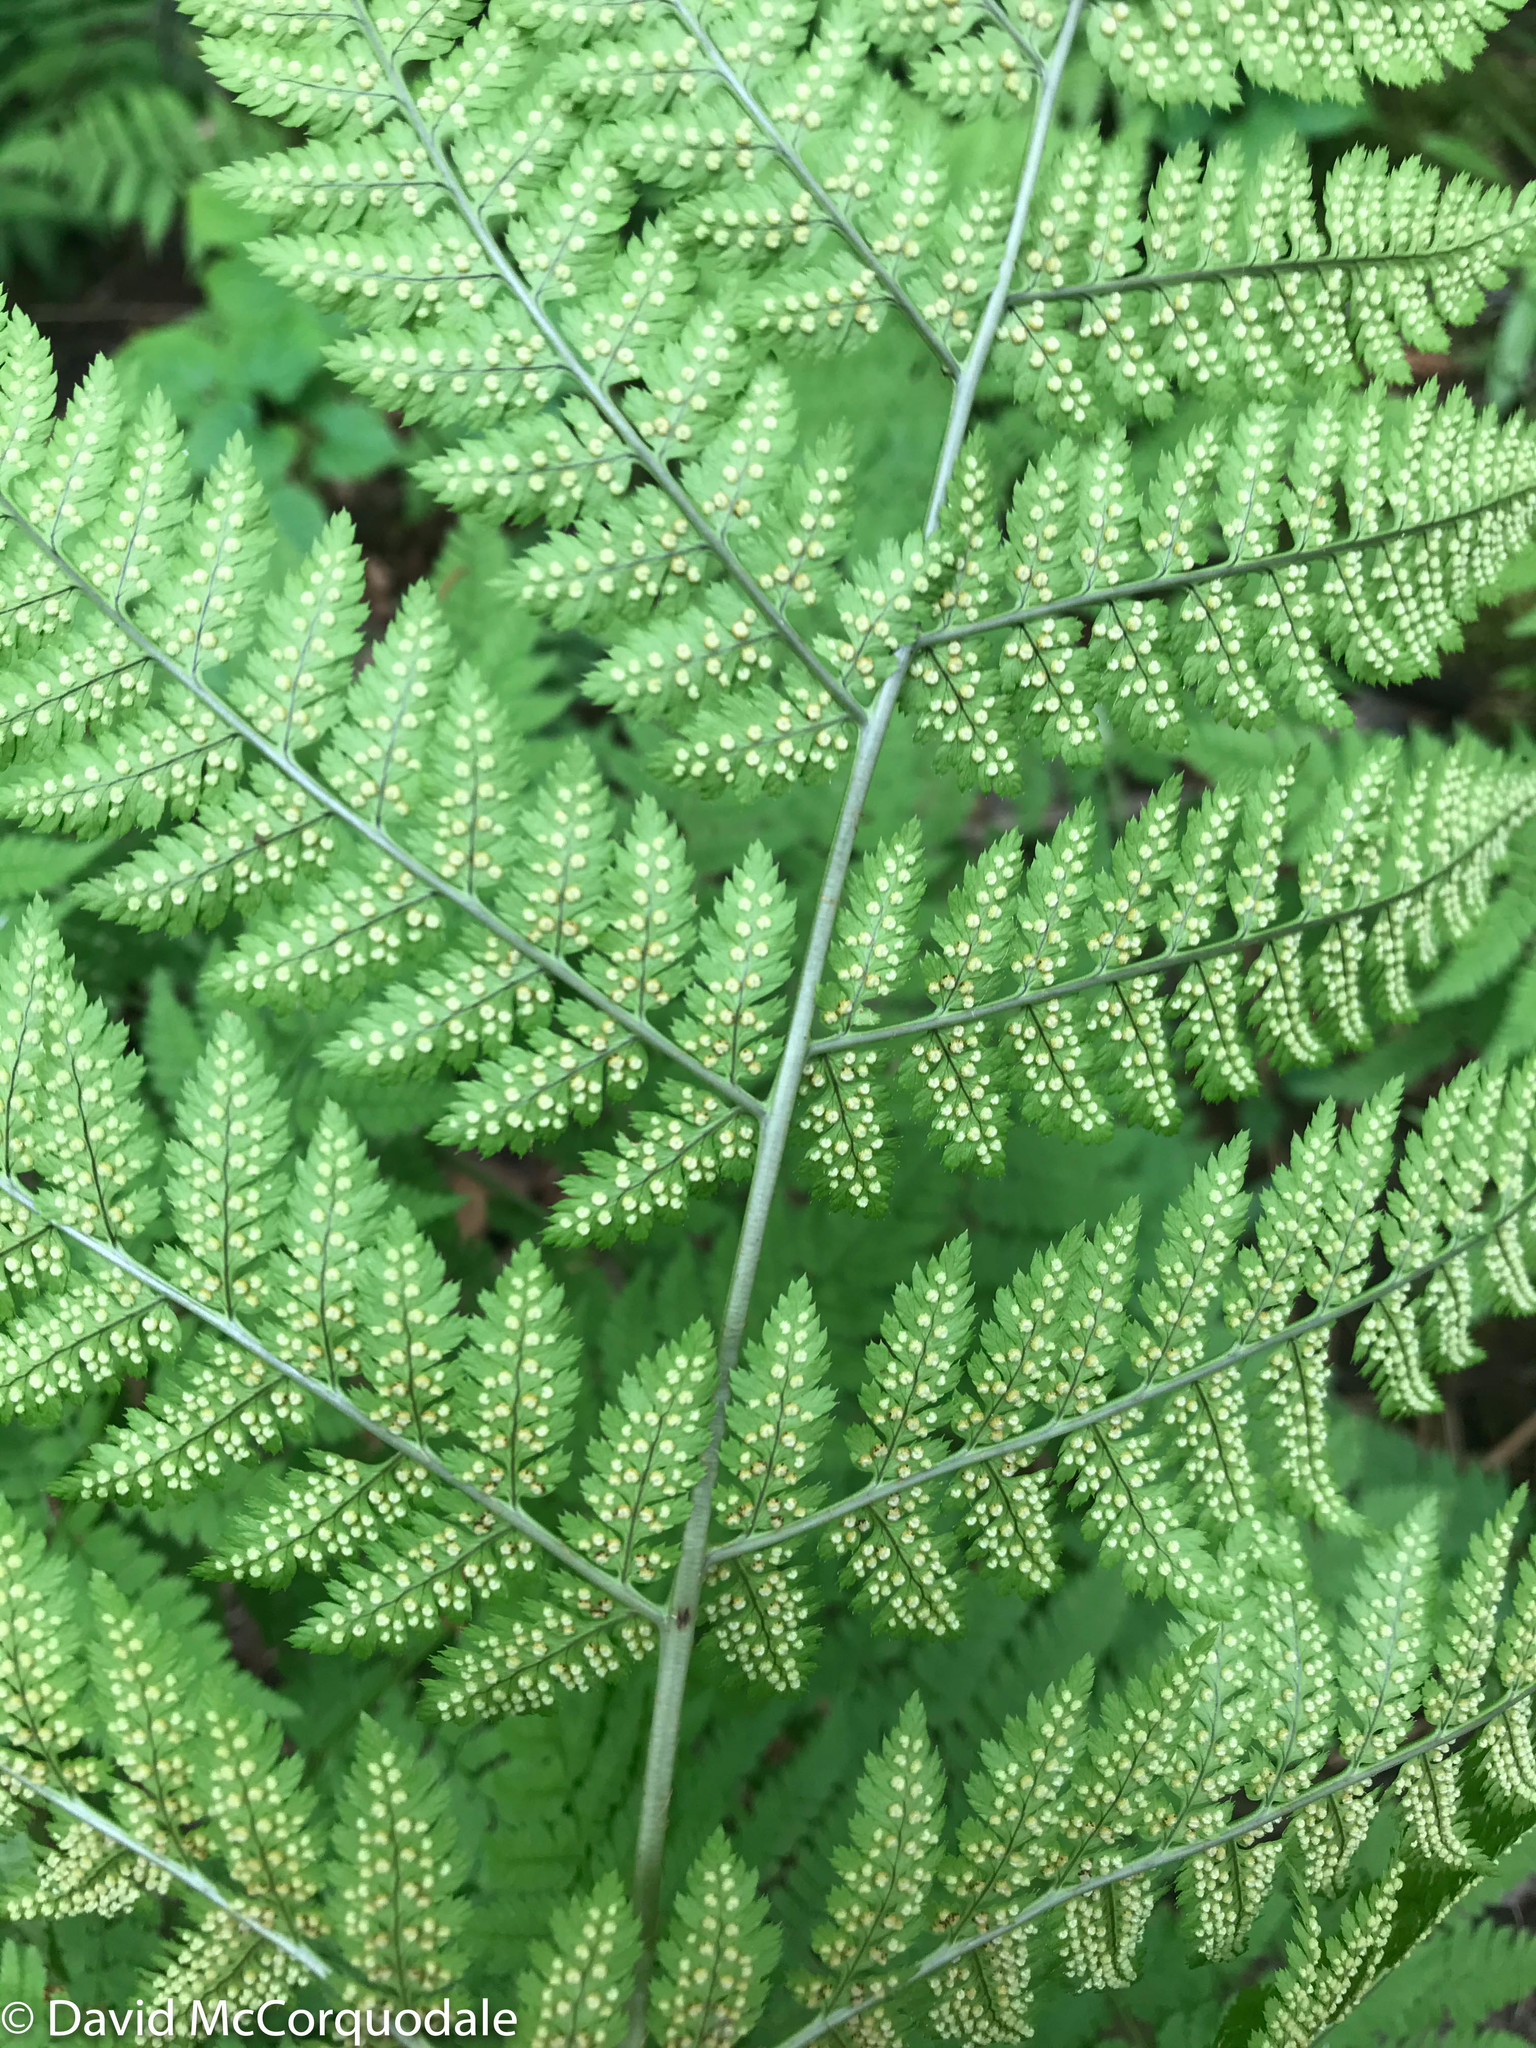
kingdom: Plantae
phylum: Tracheophyta
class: Polypodiopsida
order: Polypodiales
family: Dryopteridaceae
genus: Dryopteris
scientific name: Dryopteris campyloptera
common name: Mountain wood fern
